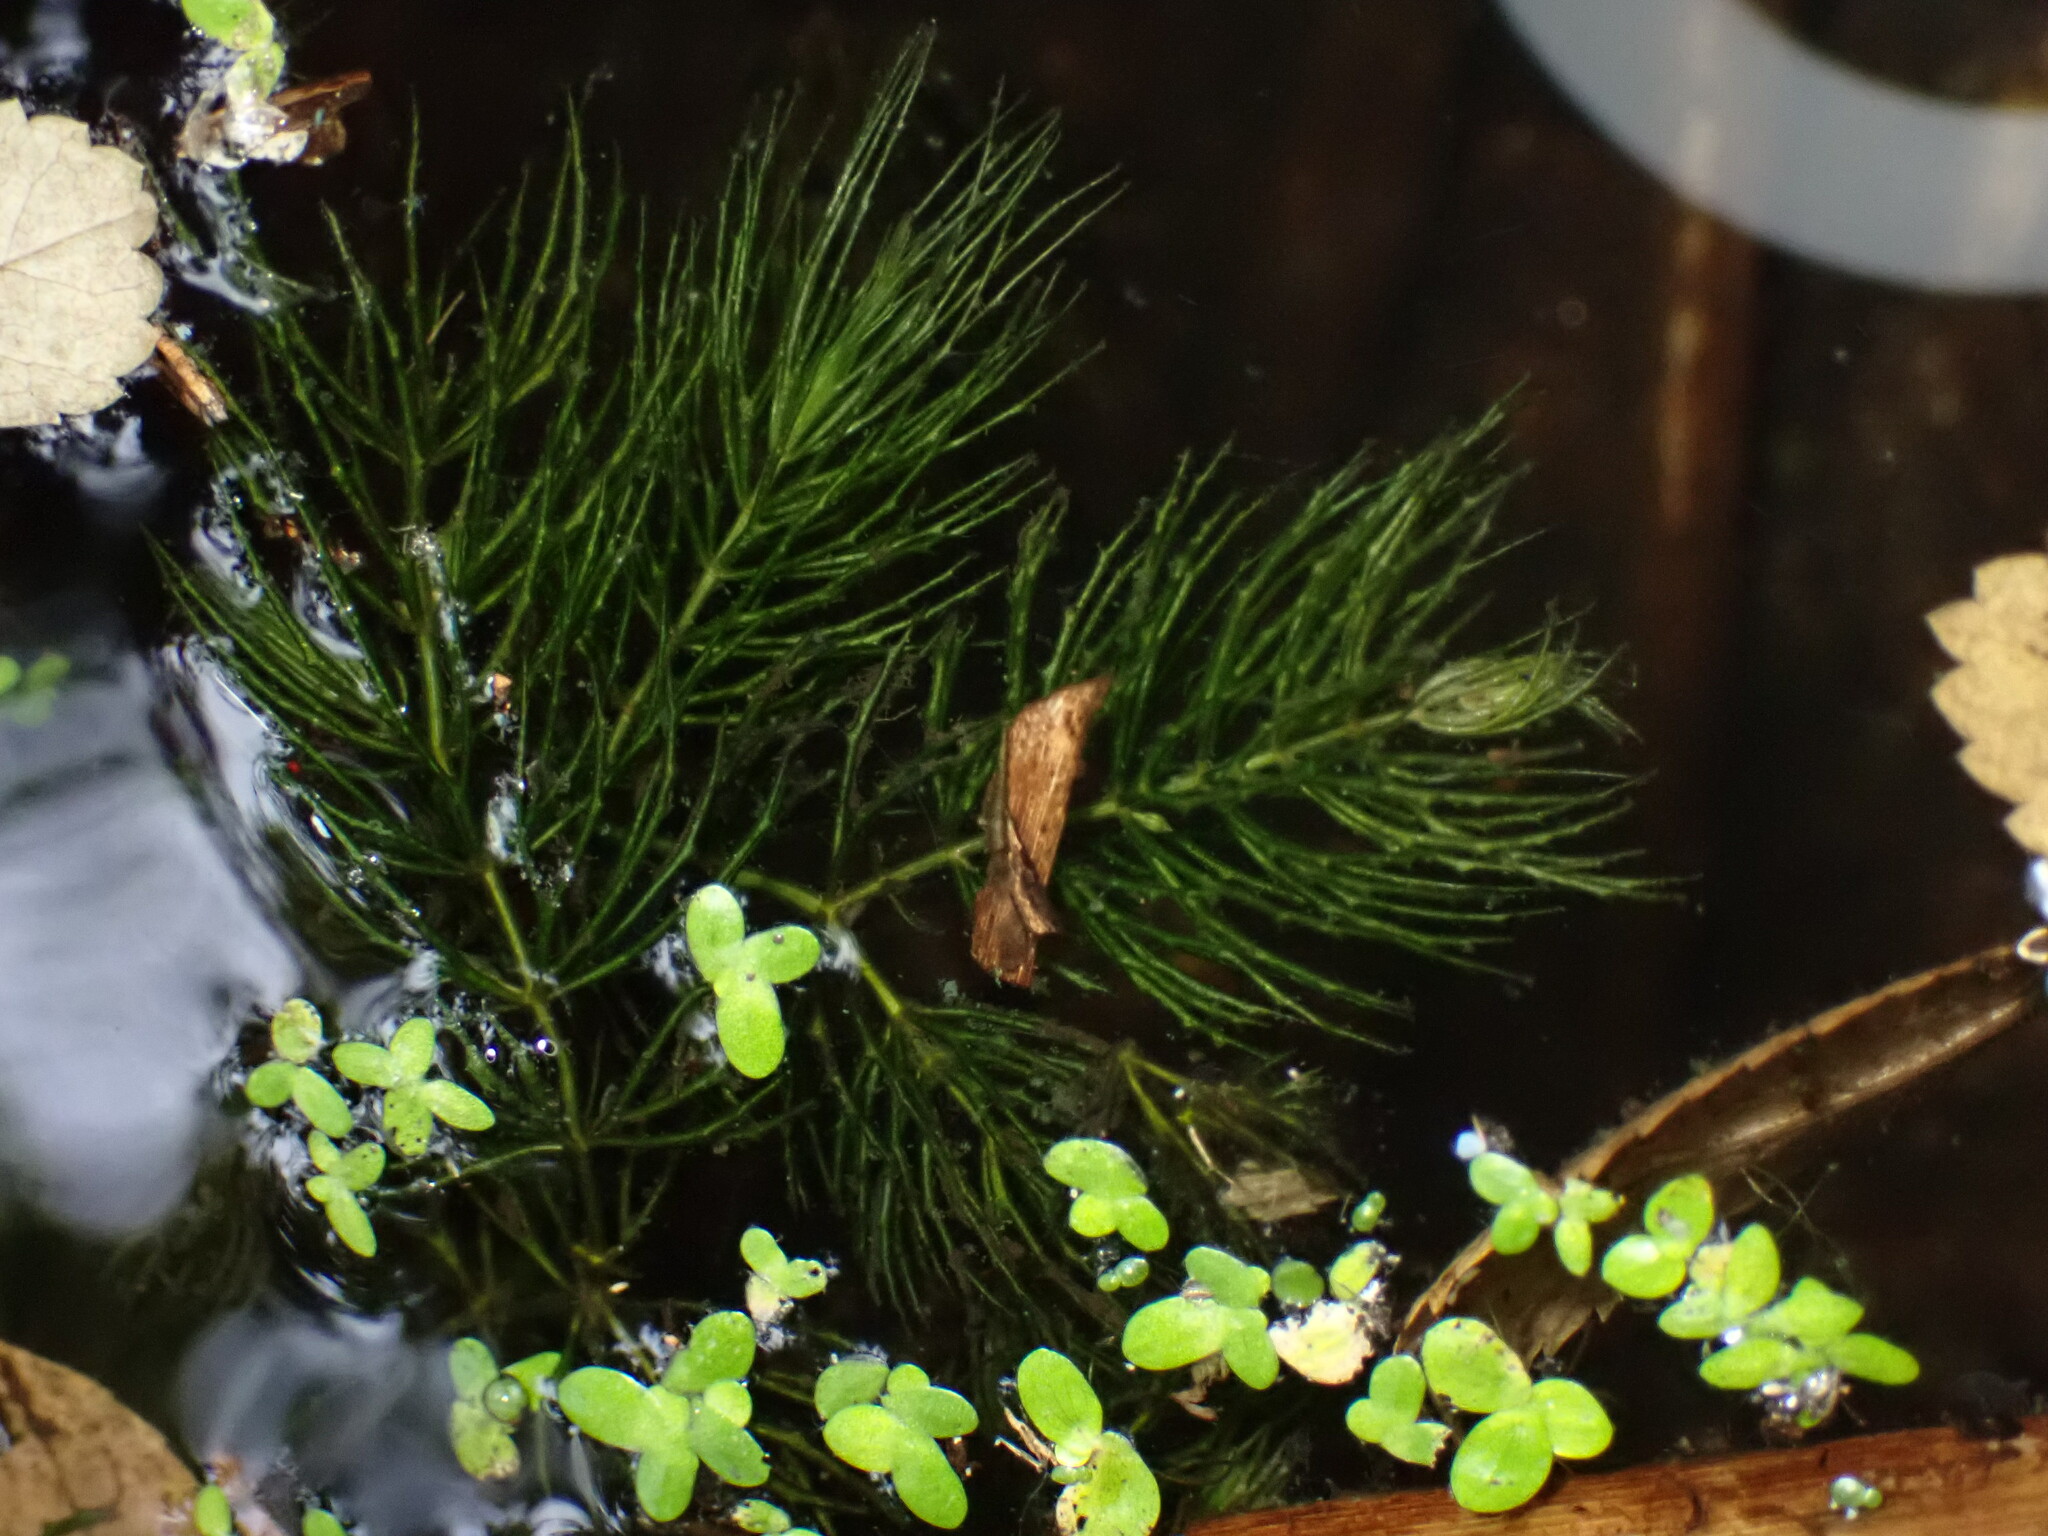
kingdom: Plantae
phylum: Tracheophyta
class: Magnoliopsida
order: Ceratophyllales
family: Ceratophyllaceae
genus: Ceratophyllum
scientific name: Ceratophyllum demersum
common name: Rigid hornwort
